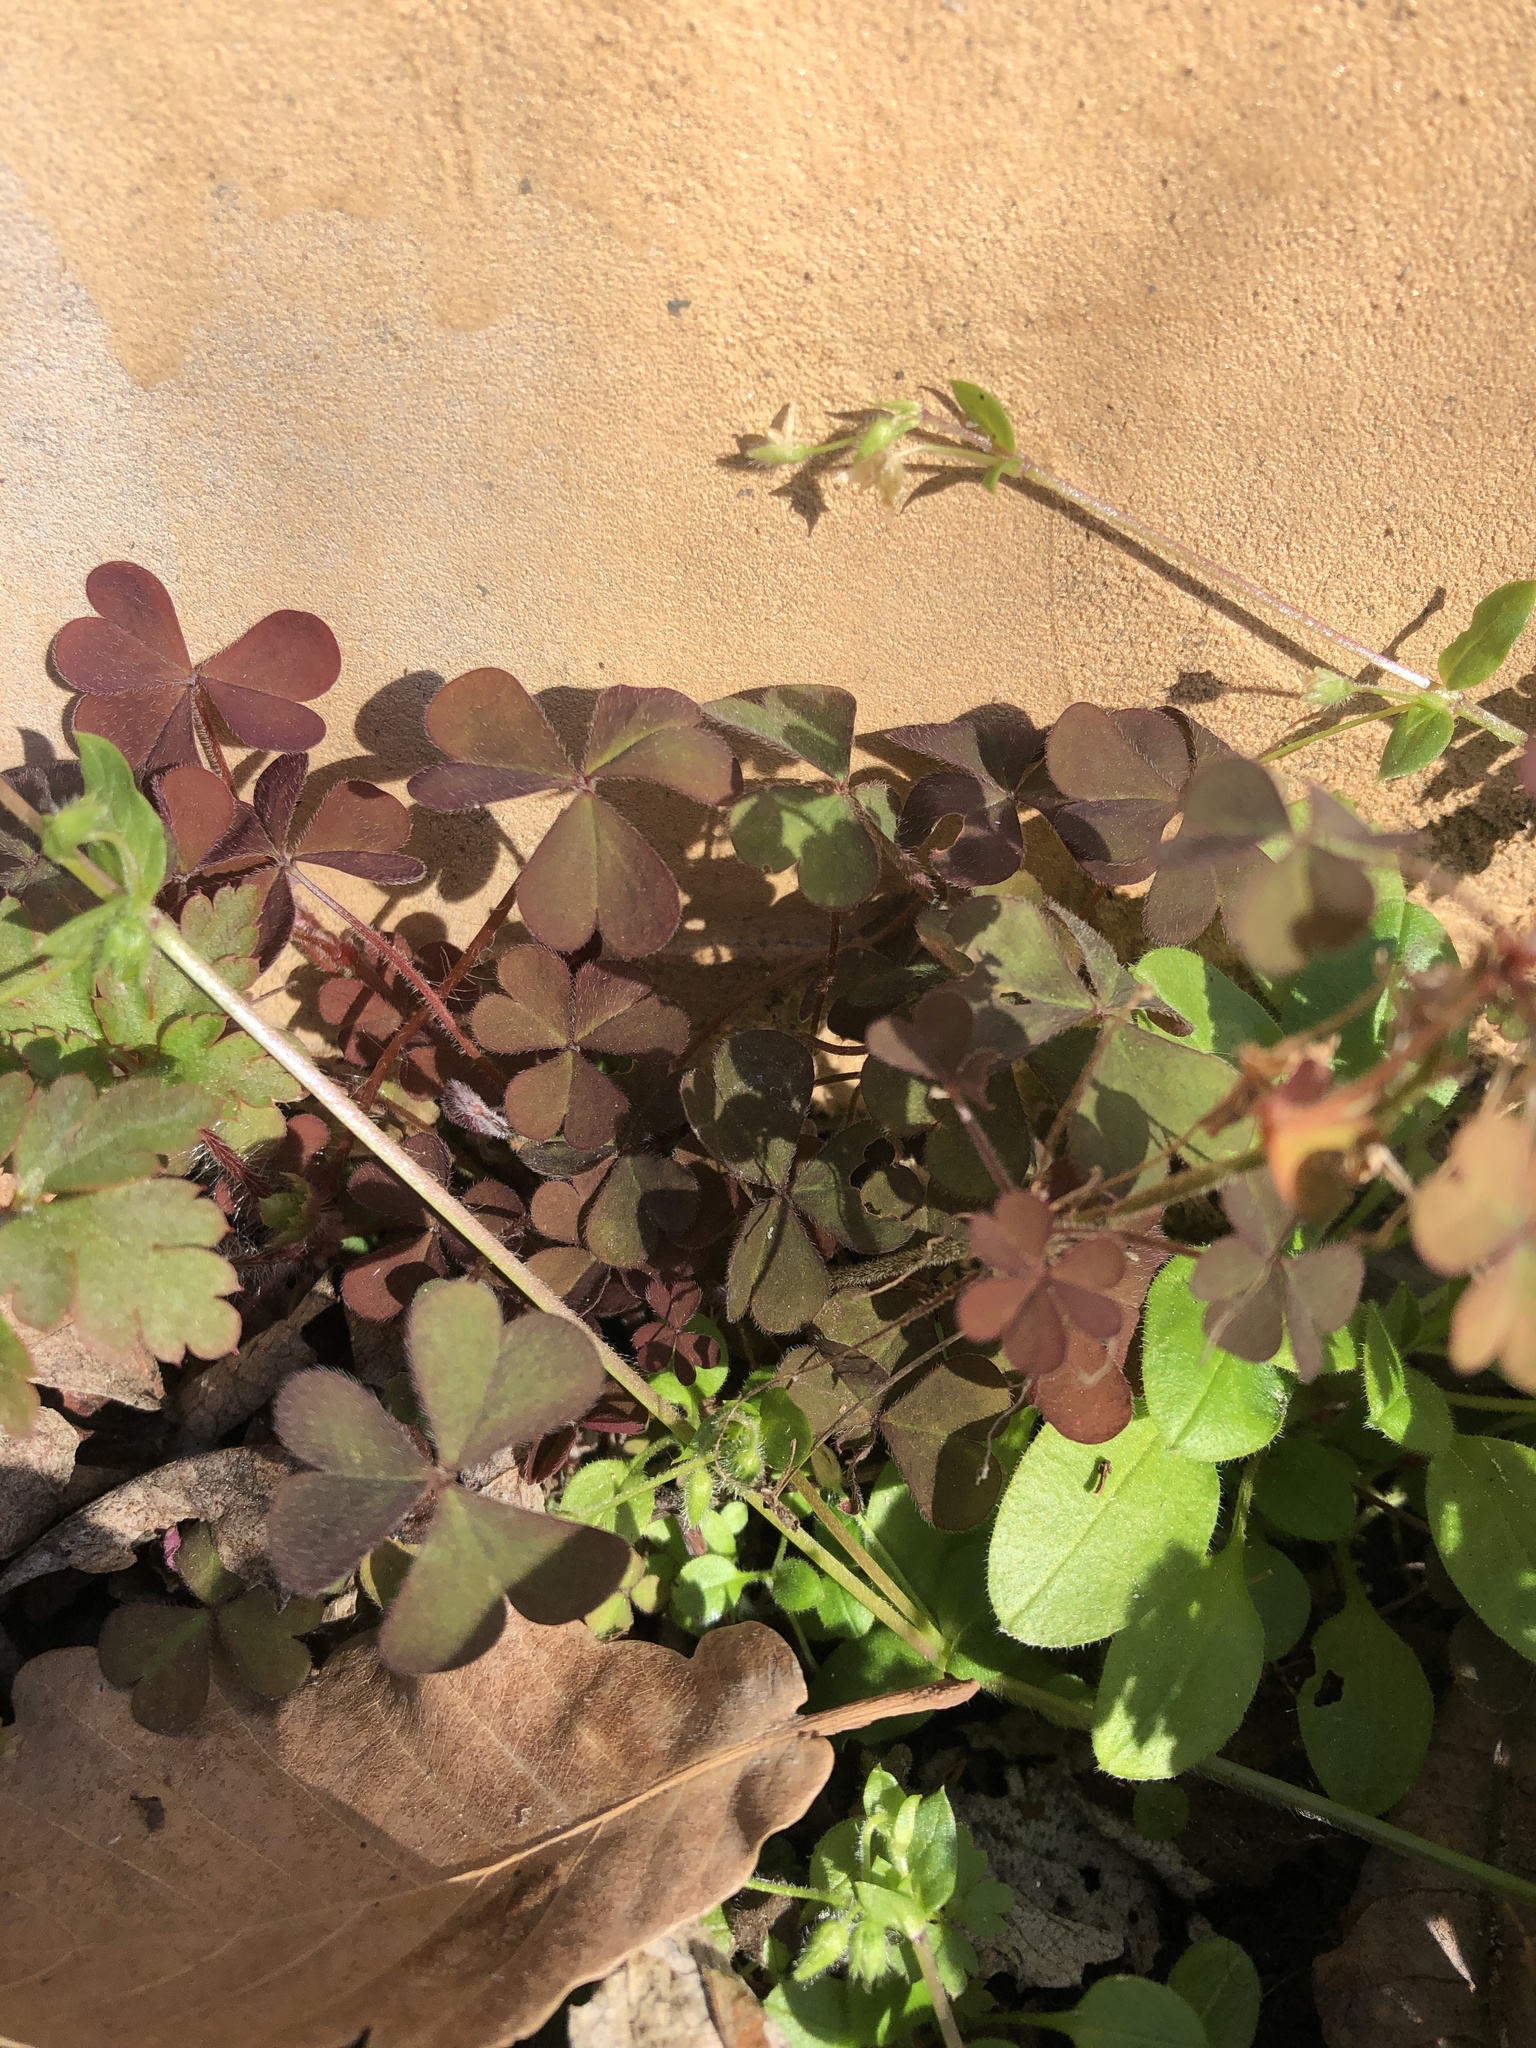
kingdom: Plantae
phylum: Tracheophyta
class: Magnoliopsida
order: Oxalidales
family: Oxalidaceae
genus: Oxalis
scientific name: Oxalis corniculata
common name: Procumbent yellow-sorrel
